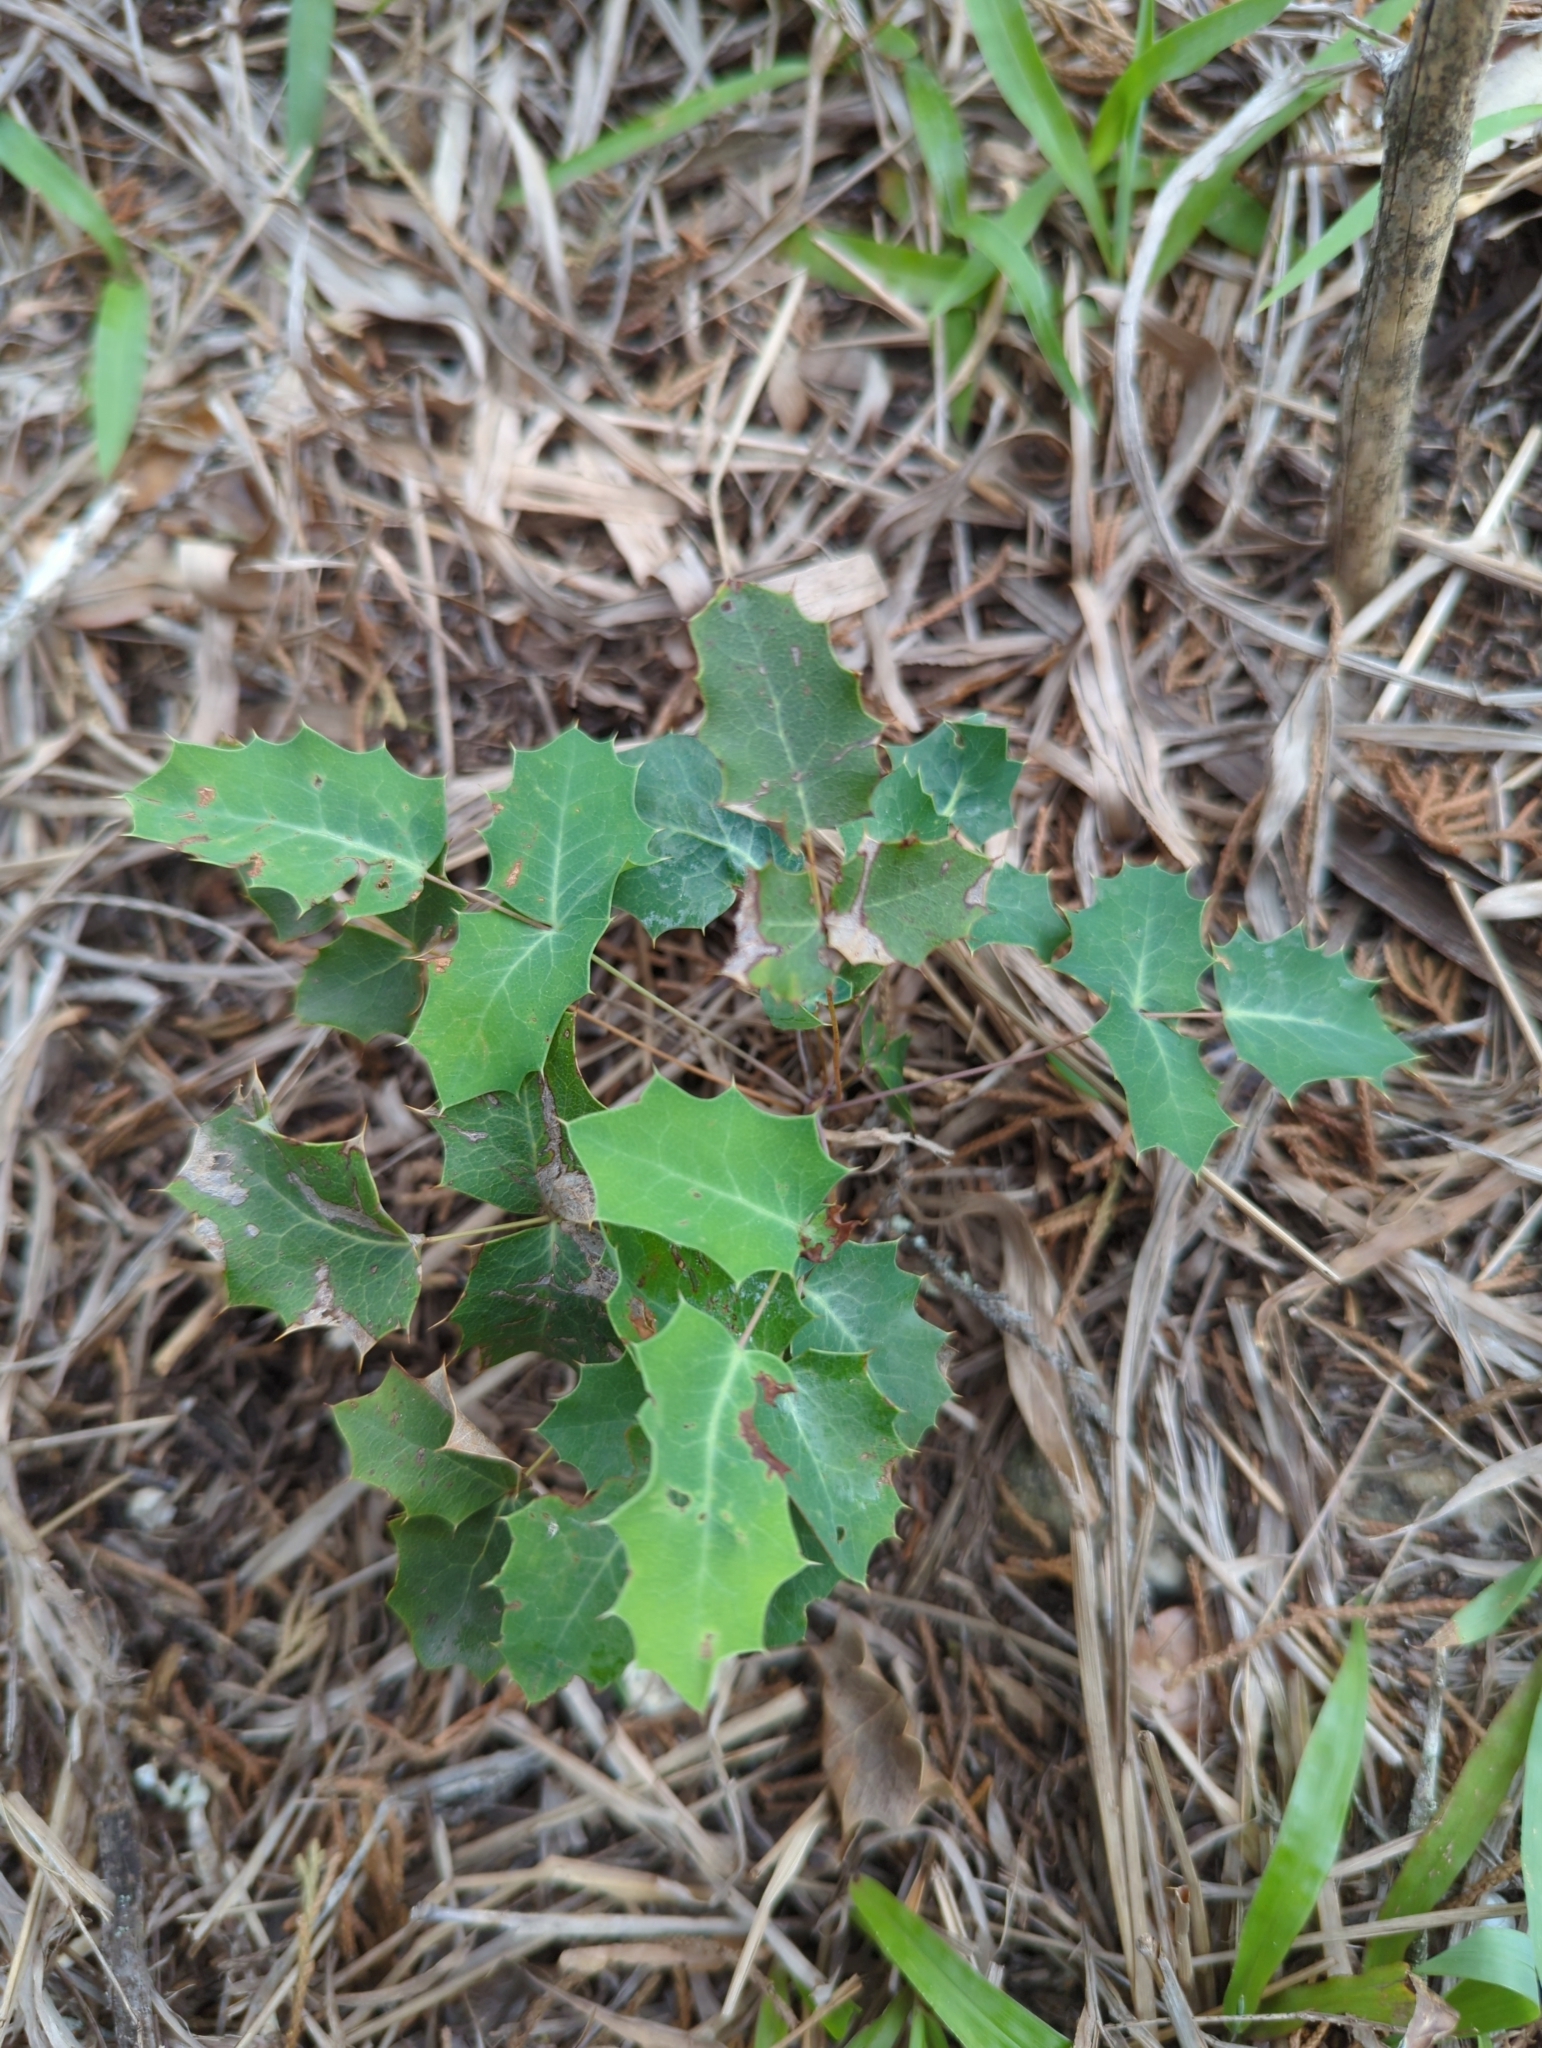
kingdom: Plantae
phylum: Tracheophyta
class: Magnoliopsida
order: Ranunculales
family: Berberidaceae
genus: Berberis
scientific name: Berberis swaseyi
